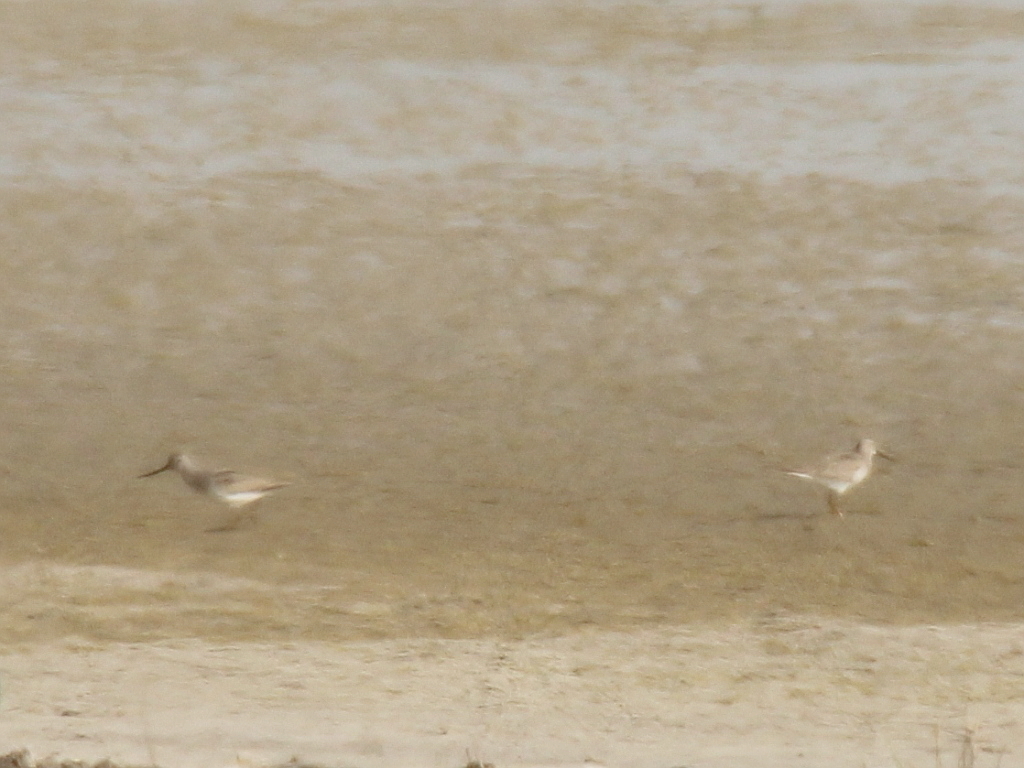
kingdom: Animalia
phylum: Chordata
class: Aves
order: Charadriiformes
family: Scolopacidae
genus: Xenus
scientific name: Xenus cinereus
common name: Terek sandpiper
